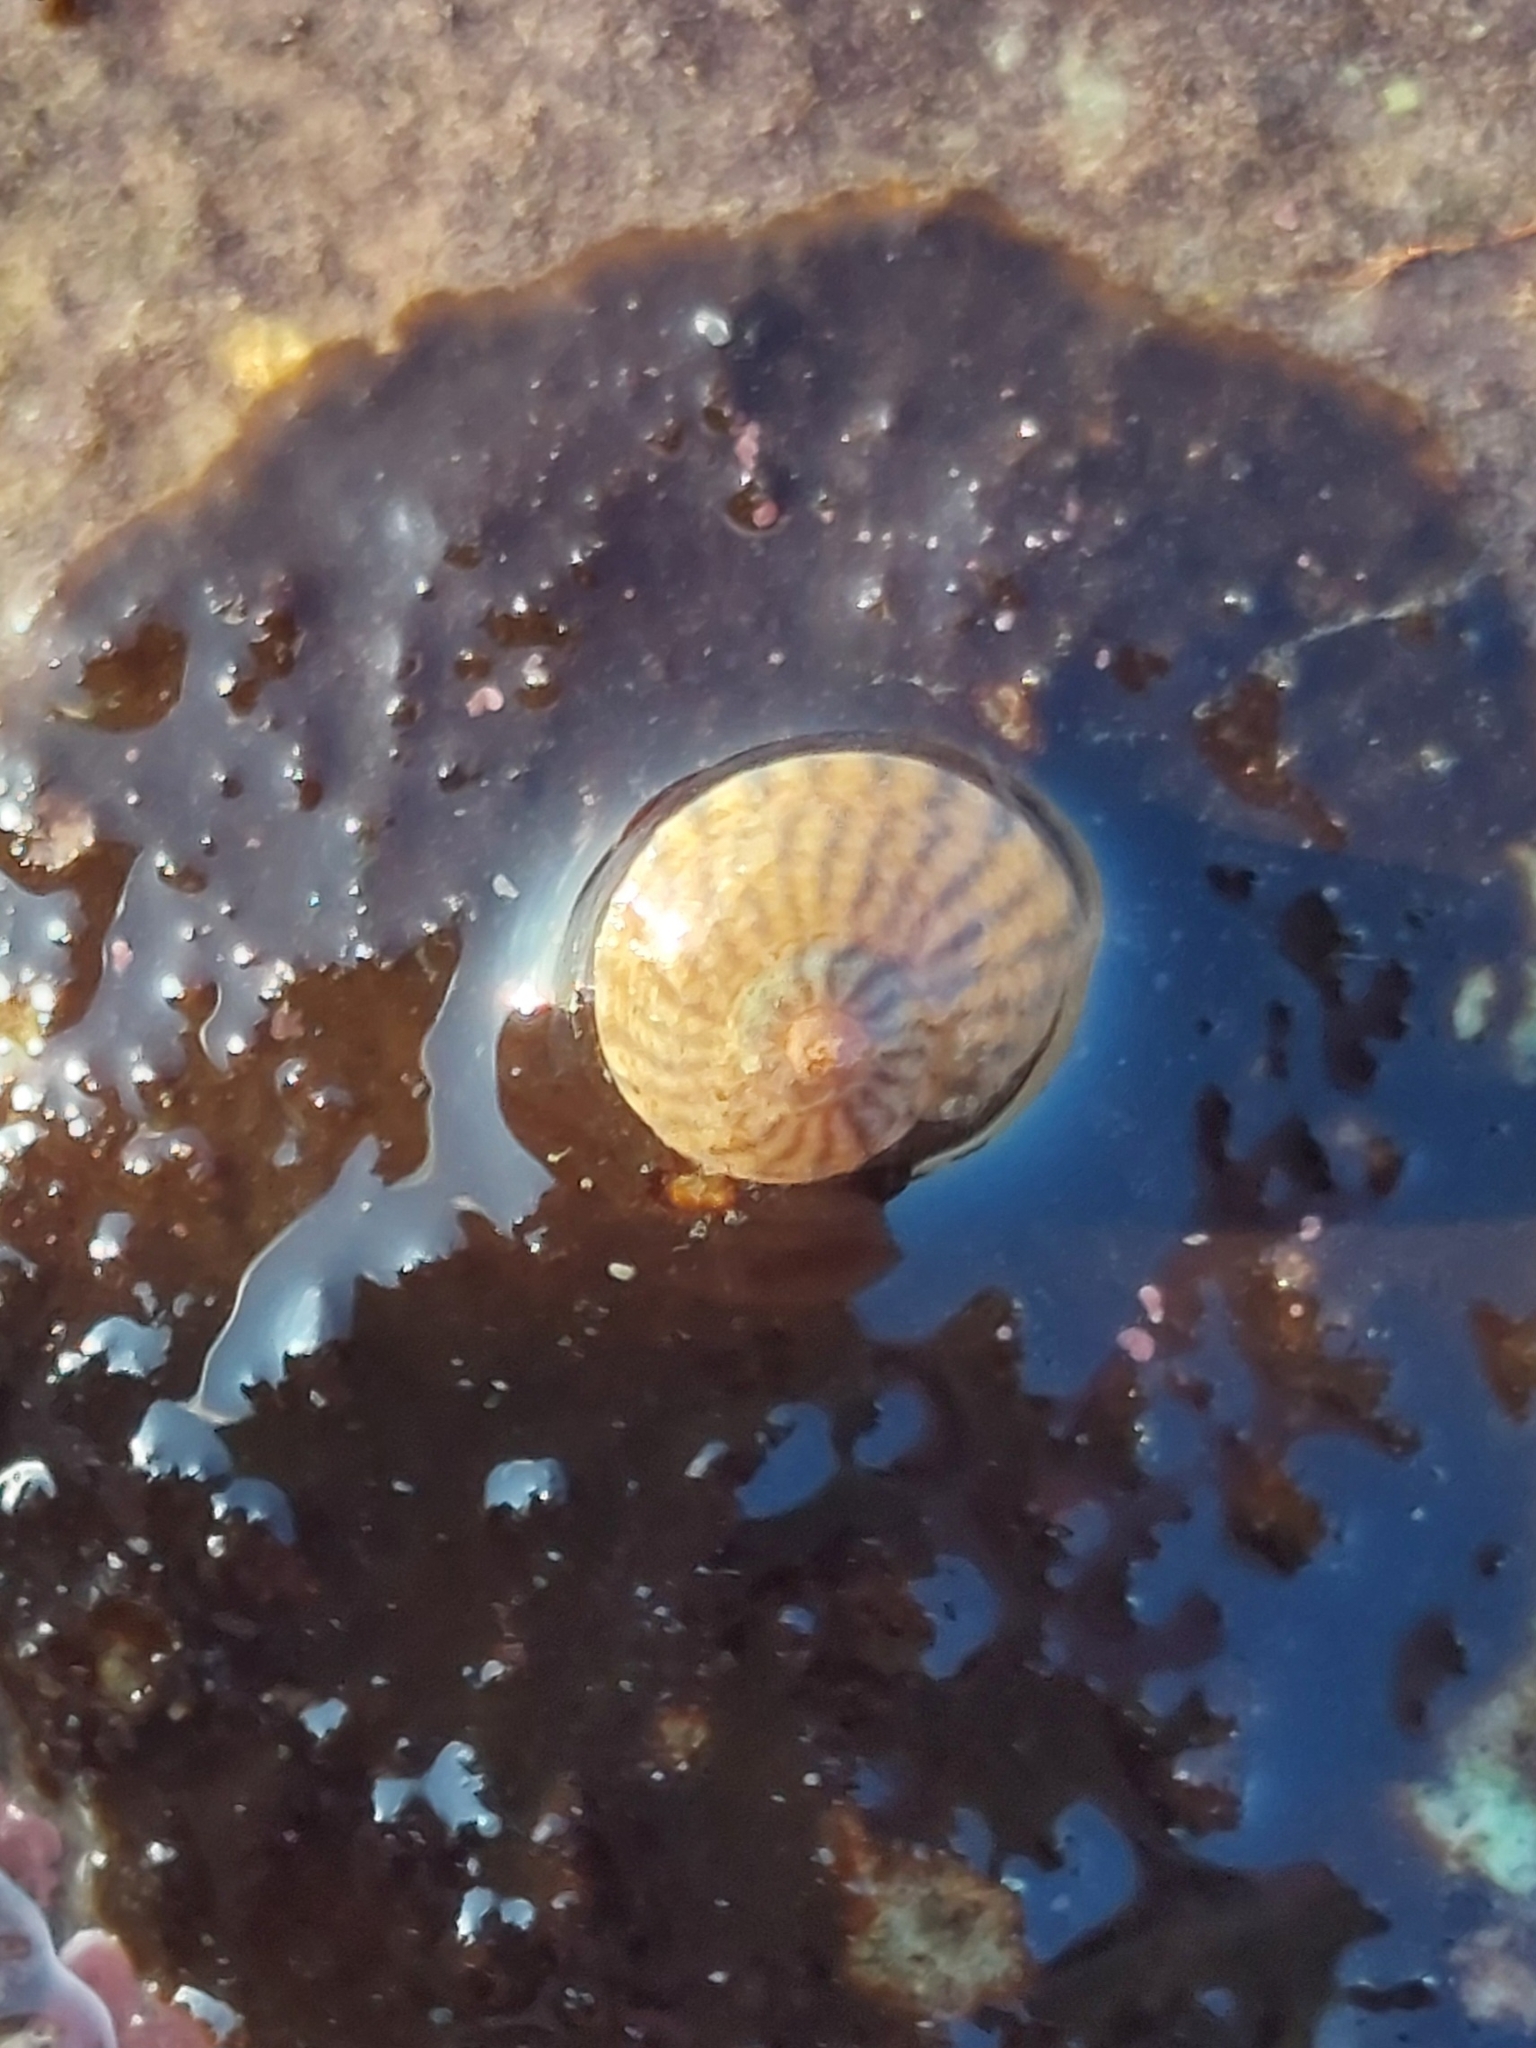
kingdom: Animalia
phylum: Mollusca
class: Gastropoda
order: Trochida
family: Trochidae
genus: Steromphala
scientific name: Steromphala cineraria
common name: Grey top shell
